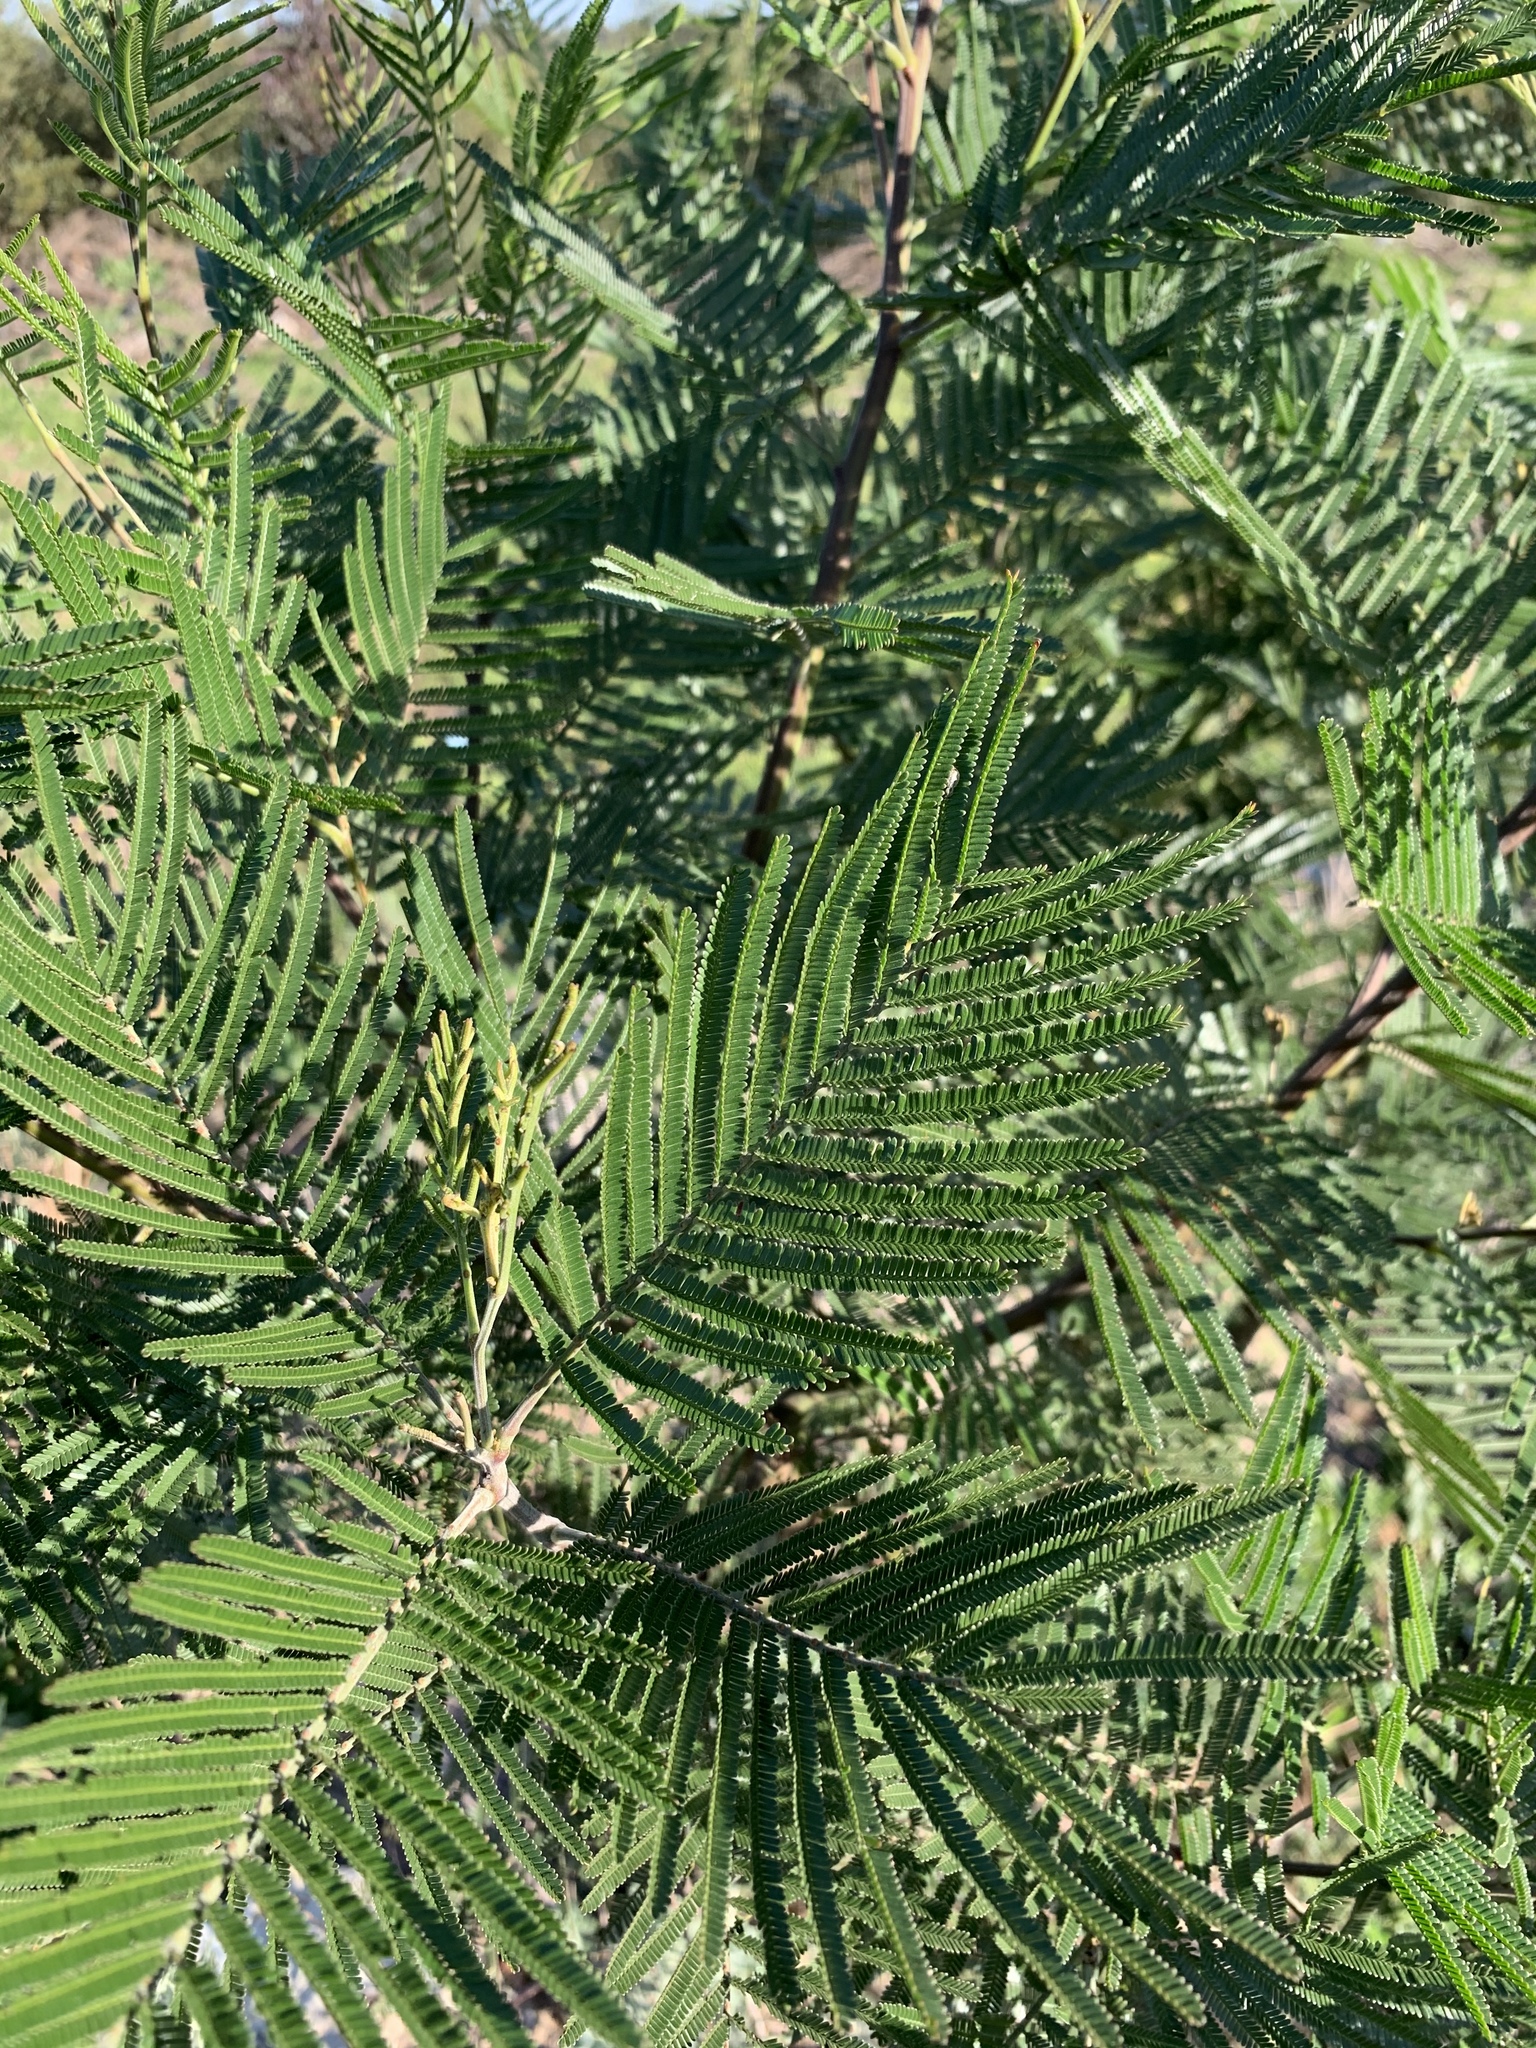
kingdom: Plantae
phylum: Tracheophyta
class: Magnoliopsida
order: Fabales
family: Fabaceae
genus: Acacia
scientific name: Acacia mearnsii
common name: Black wattle
